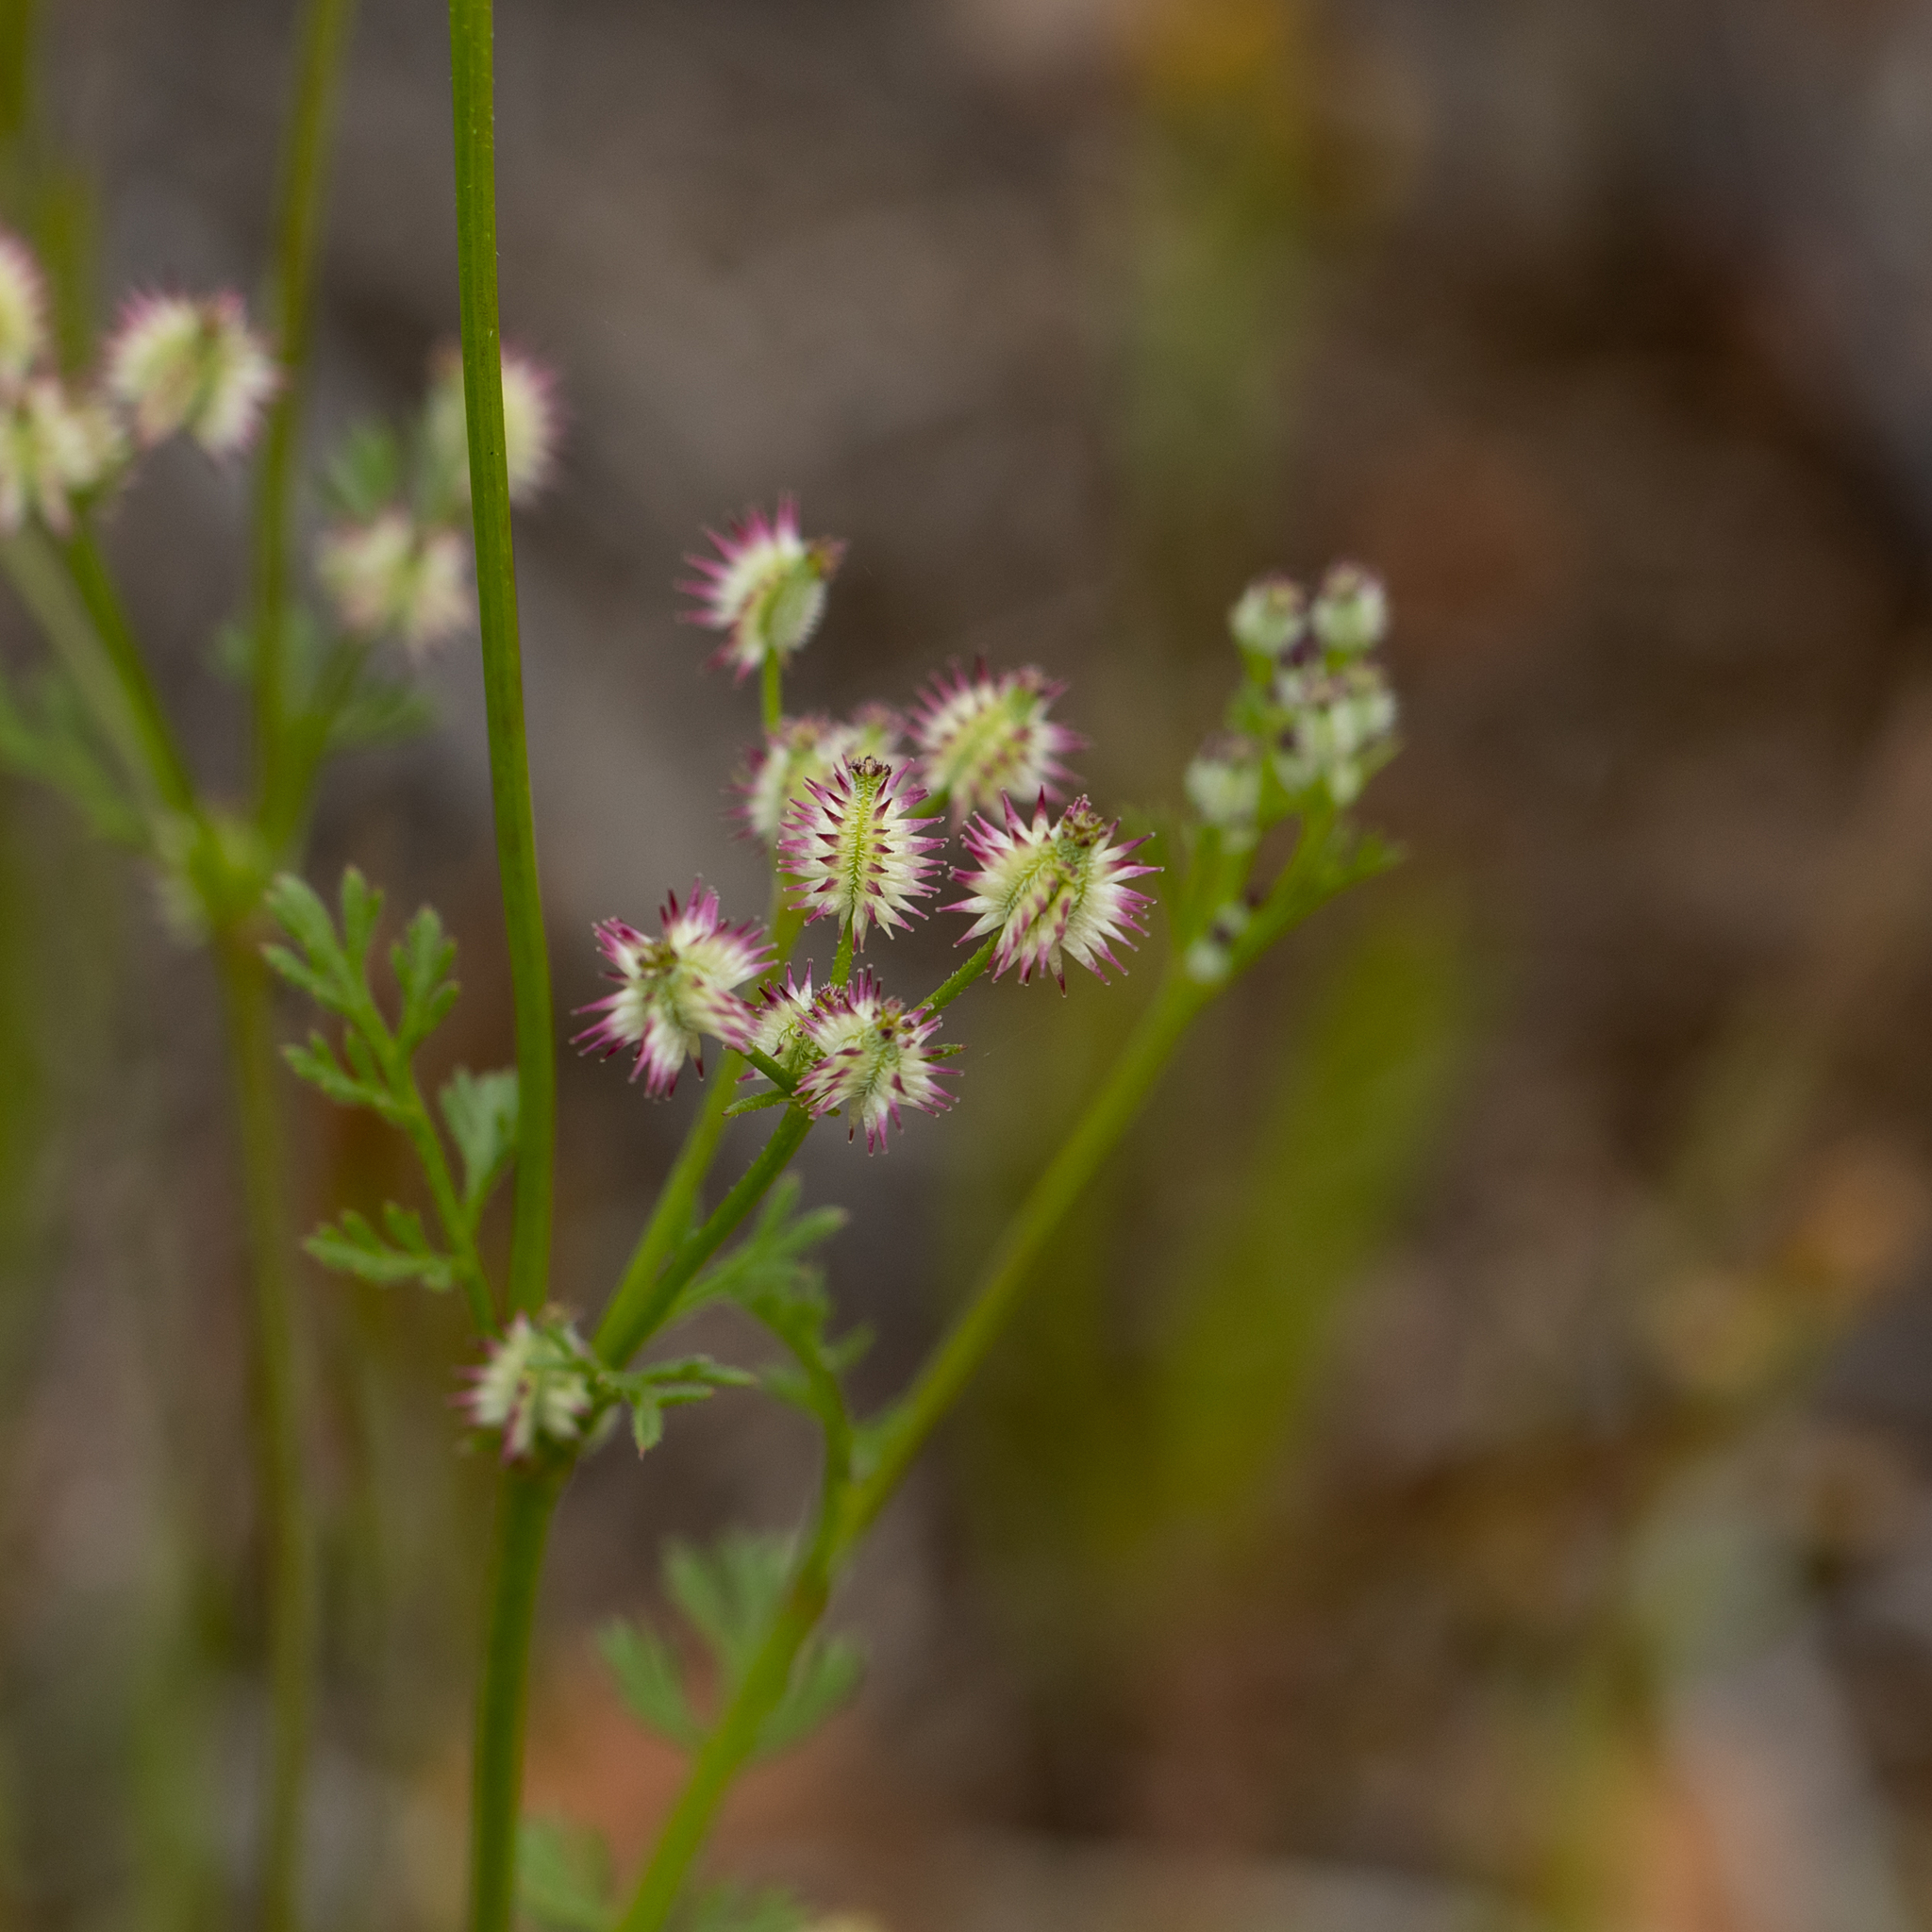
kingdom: Plantae
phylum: Tracheophyta
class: Magnoliopsida
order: Apiales
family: Apiaceae
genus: Daucus
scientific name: Daucus glochidiatus
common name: Australian carrot
